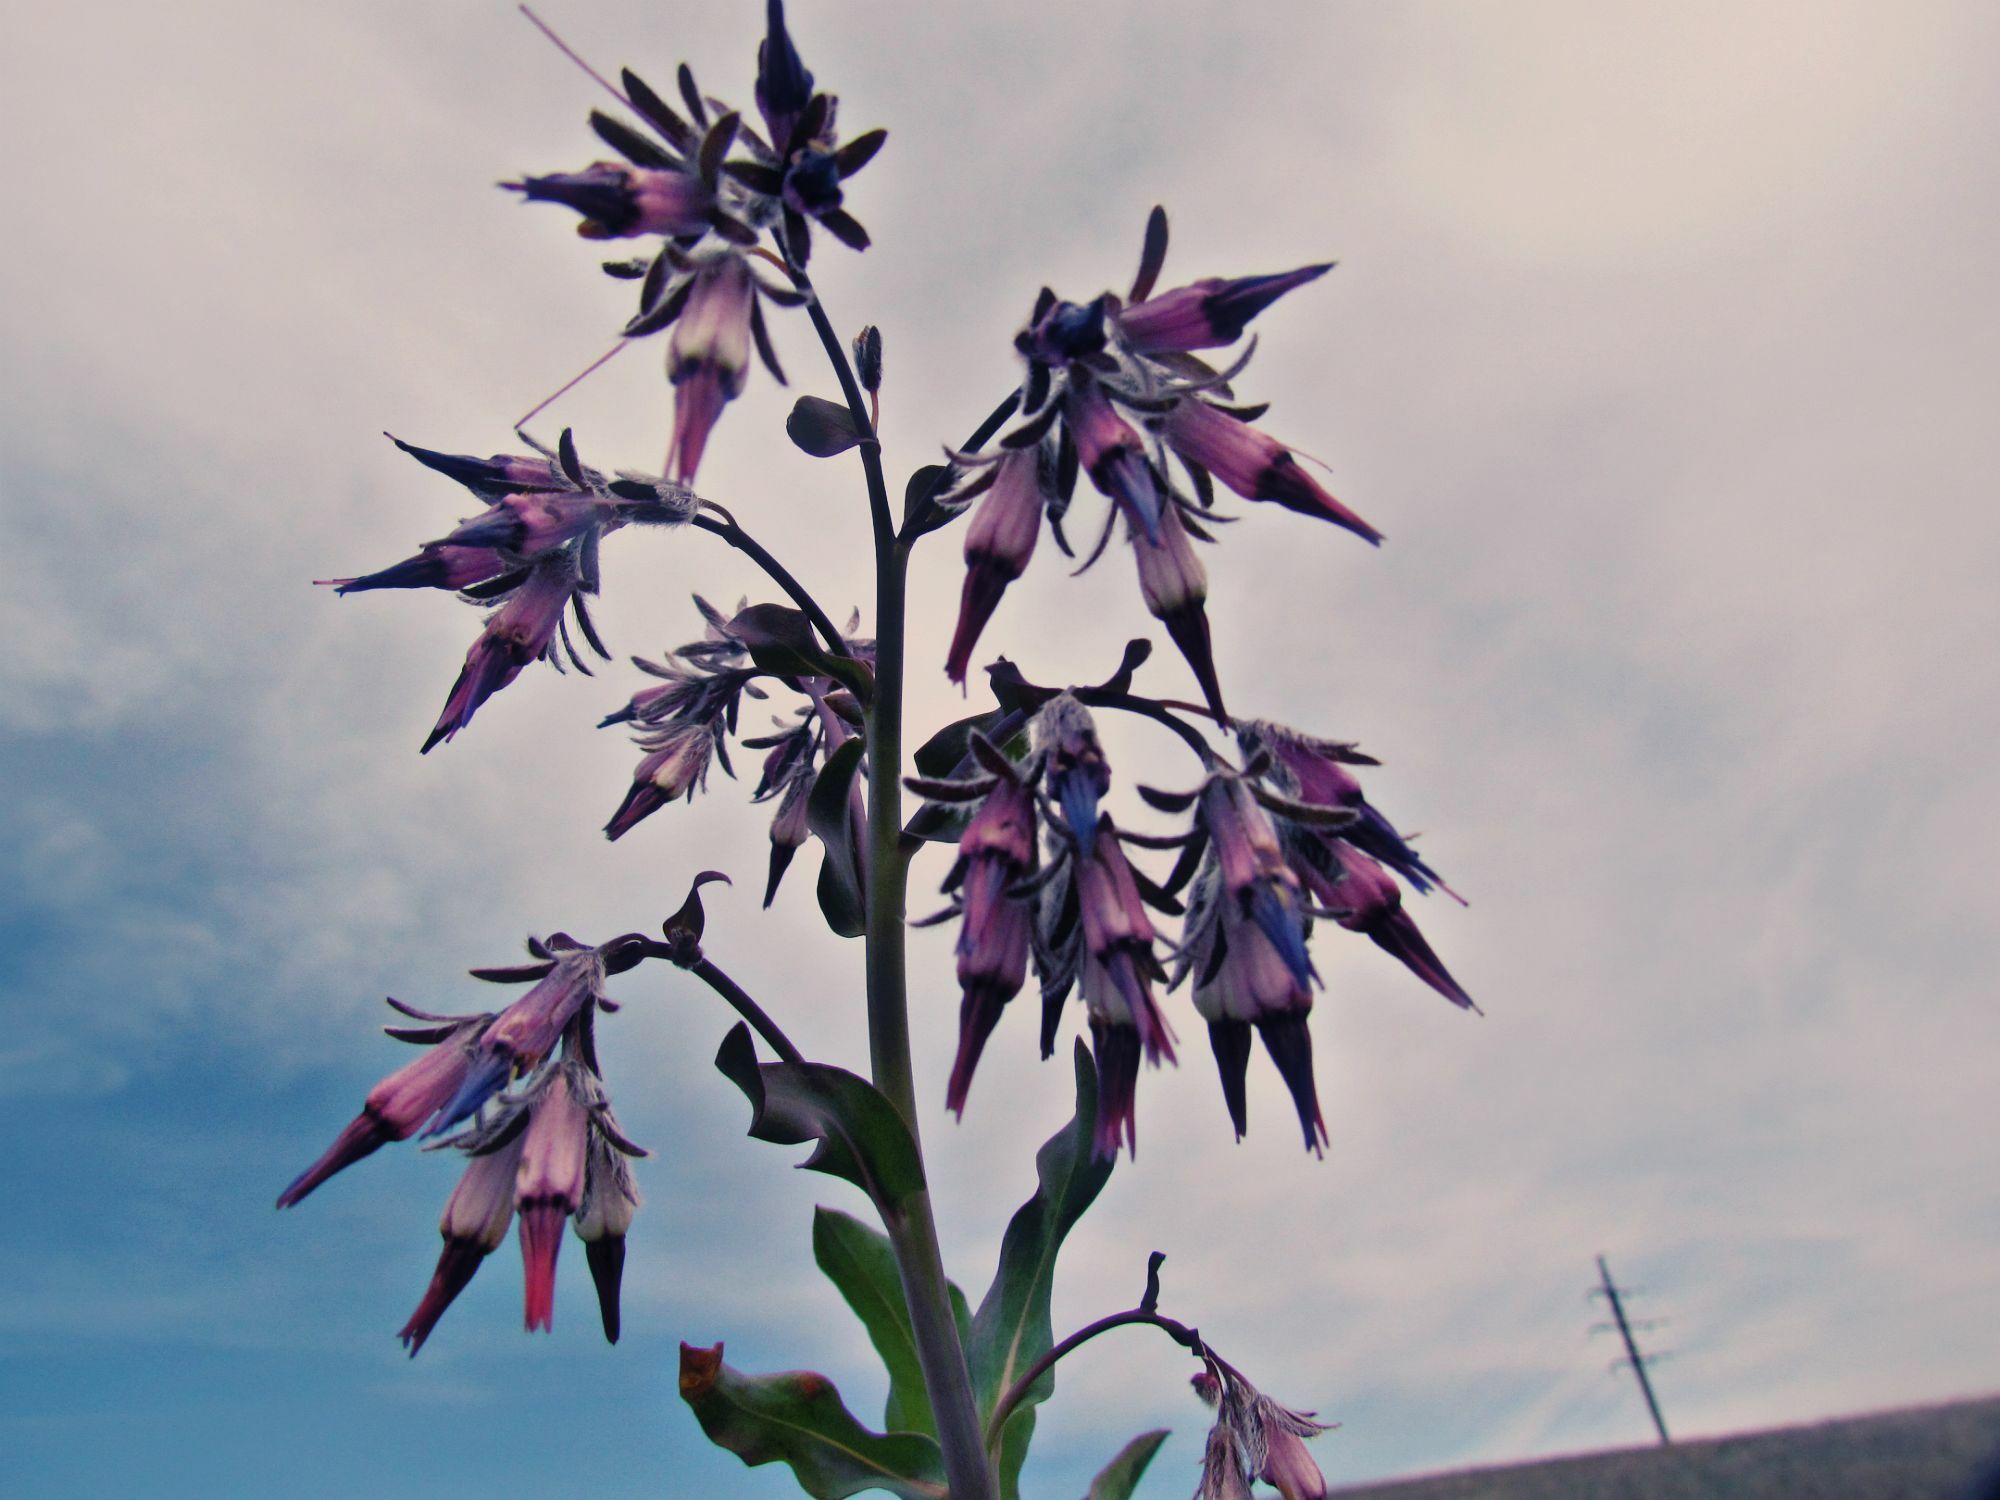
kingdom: Plantae
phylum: Tracheophyta
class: Magnoliopsida
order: Boraginales
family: Boraginaceae
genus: Rindera
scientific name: Rindera tetraspis
